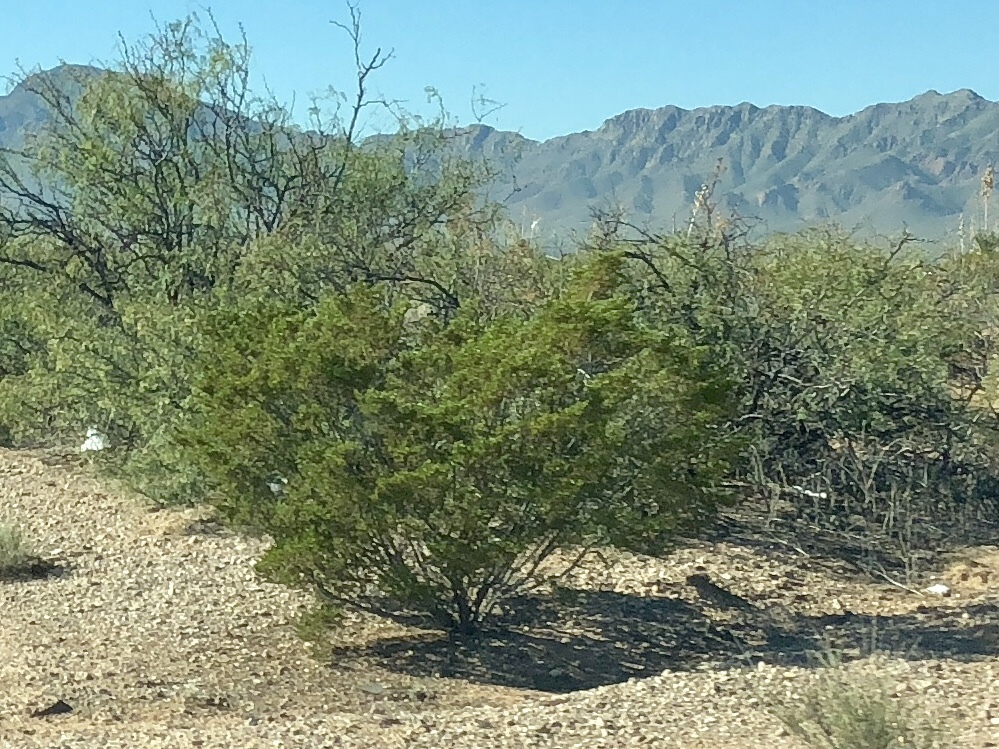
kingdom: Plantae
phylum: Tracheophyta
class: Magnoliopsida
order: Zygophyllales
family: Zygophyllaceae
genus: Larrea
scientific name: Larrea tridentata
